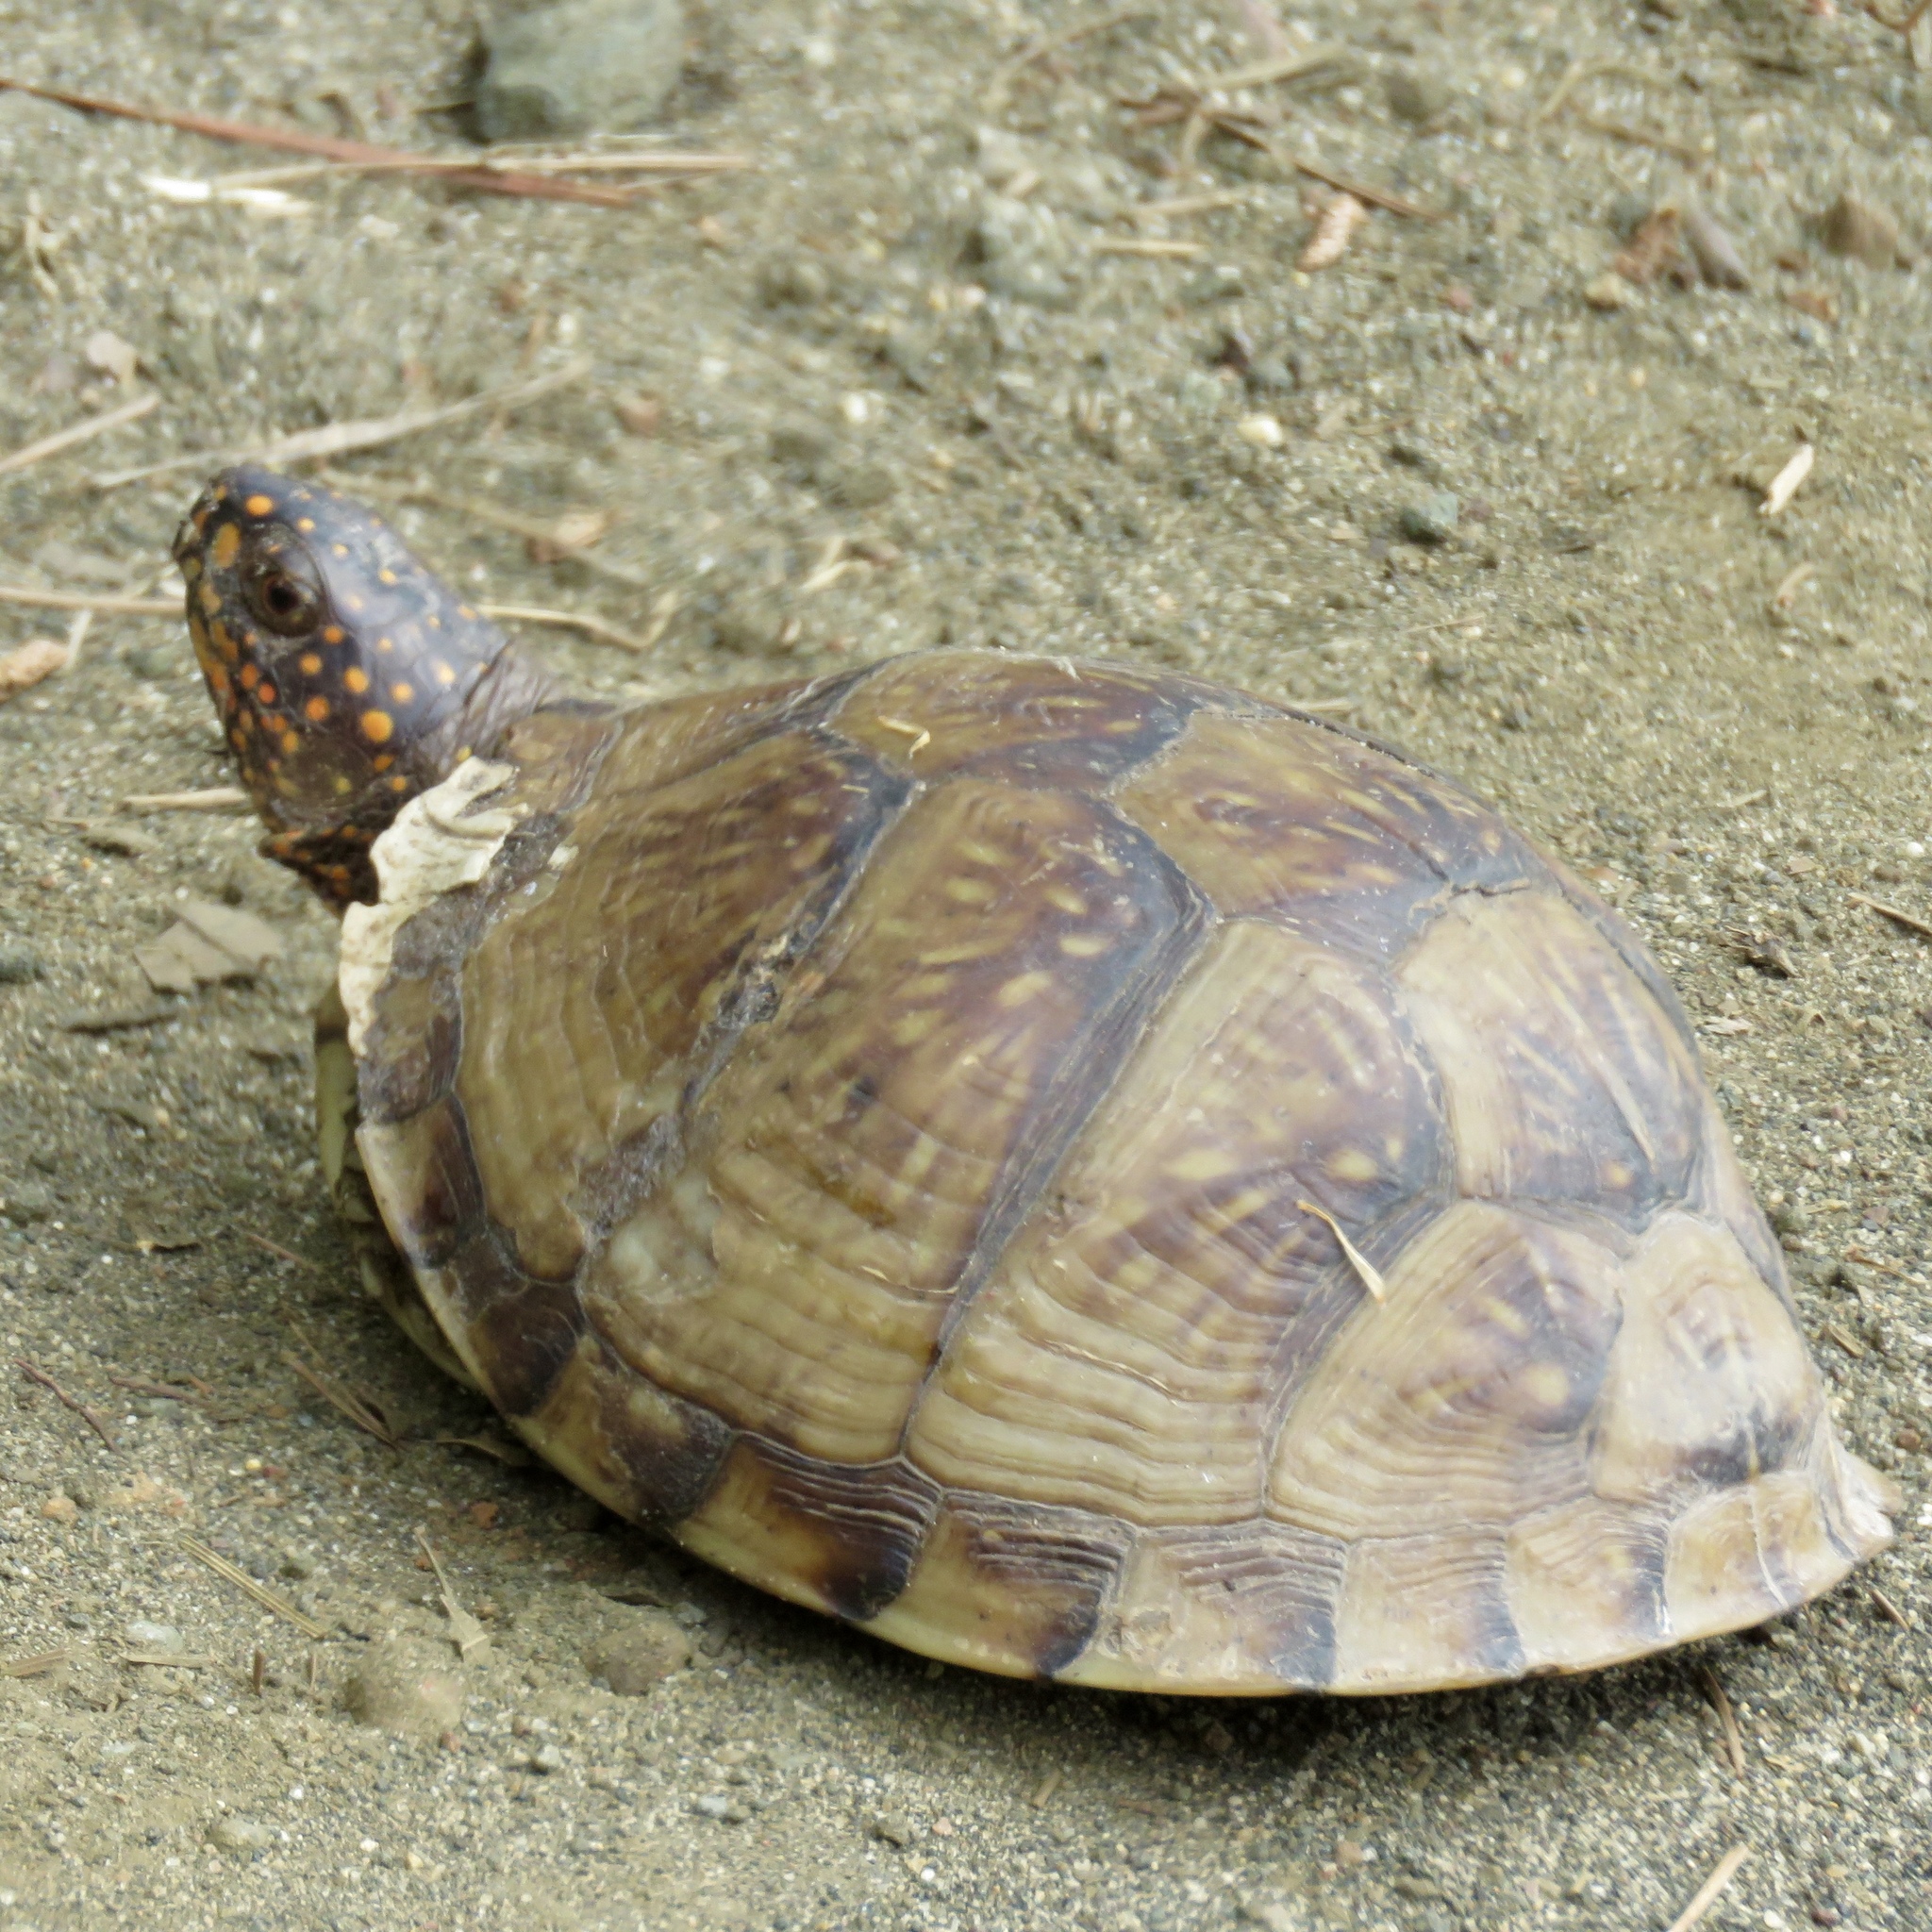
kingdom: Animalia
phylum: Chordata
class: Testudines
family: Emydidae
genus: Terrapene
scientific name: Terrapene carolina
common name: Common box turtle
